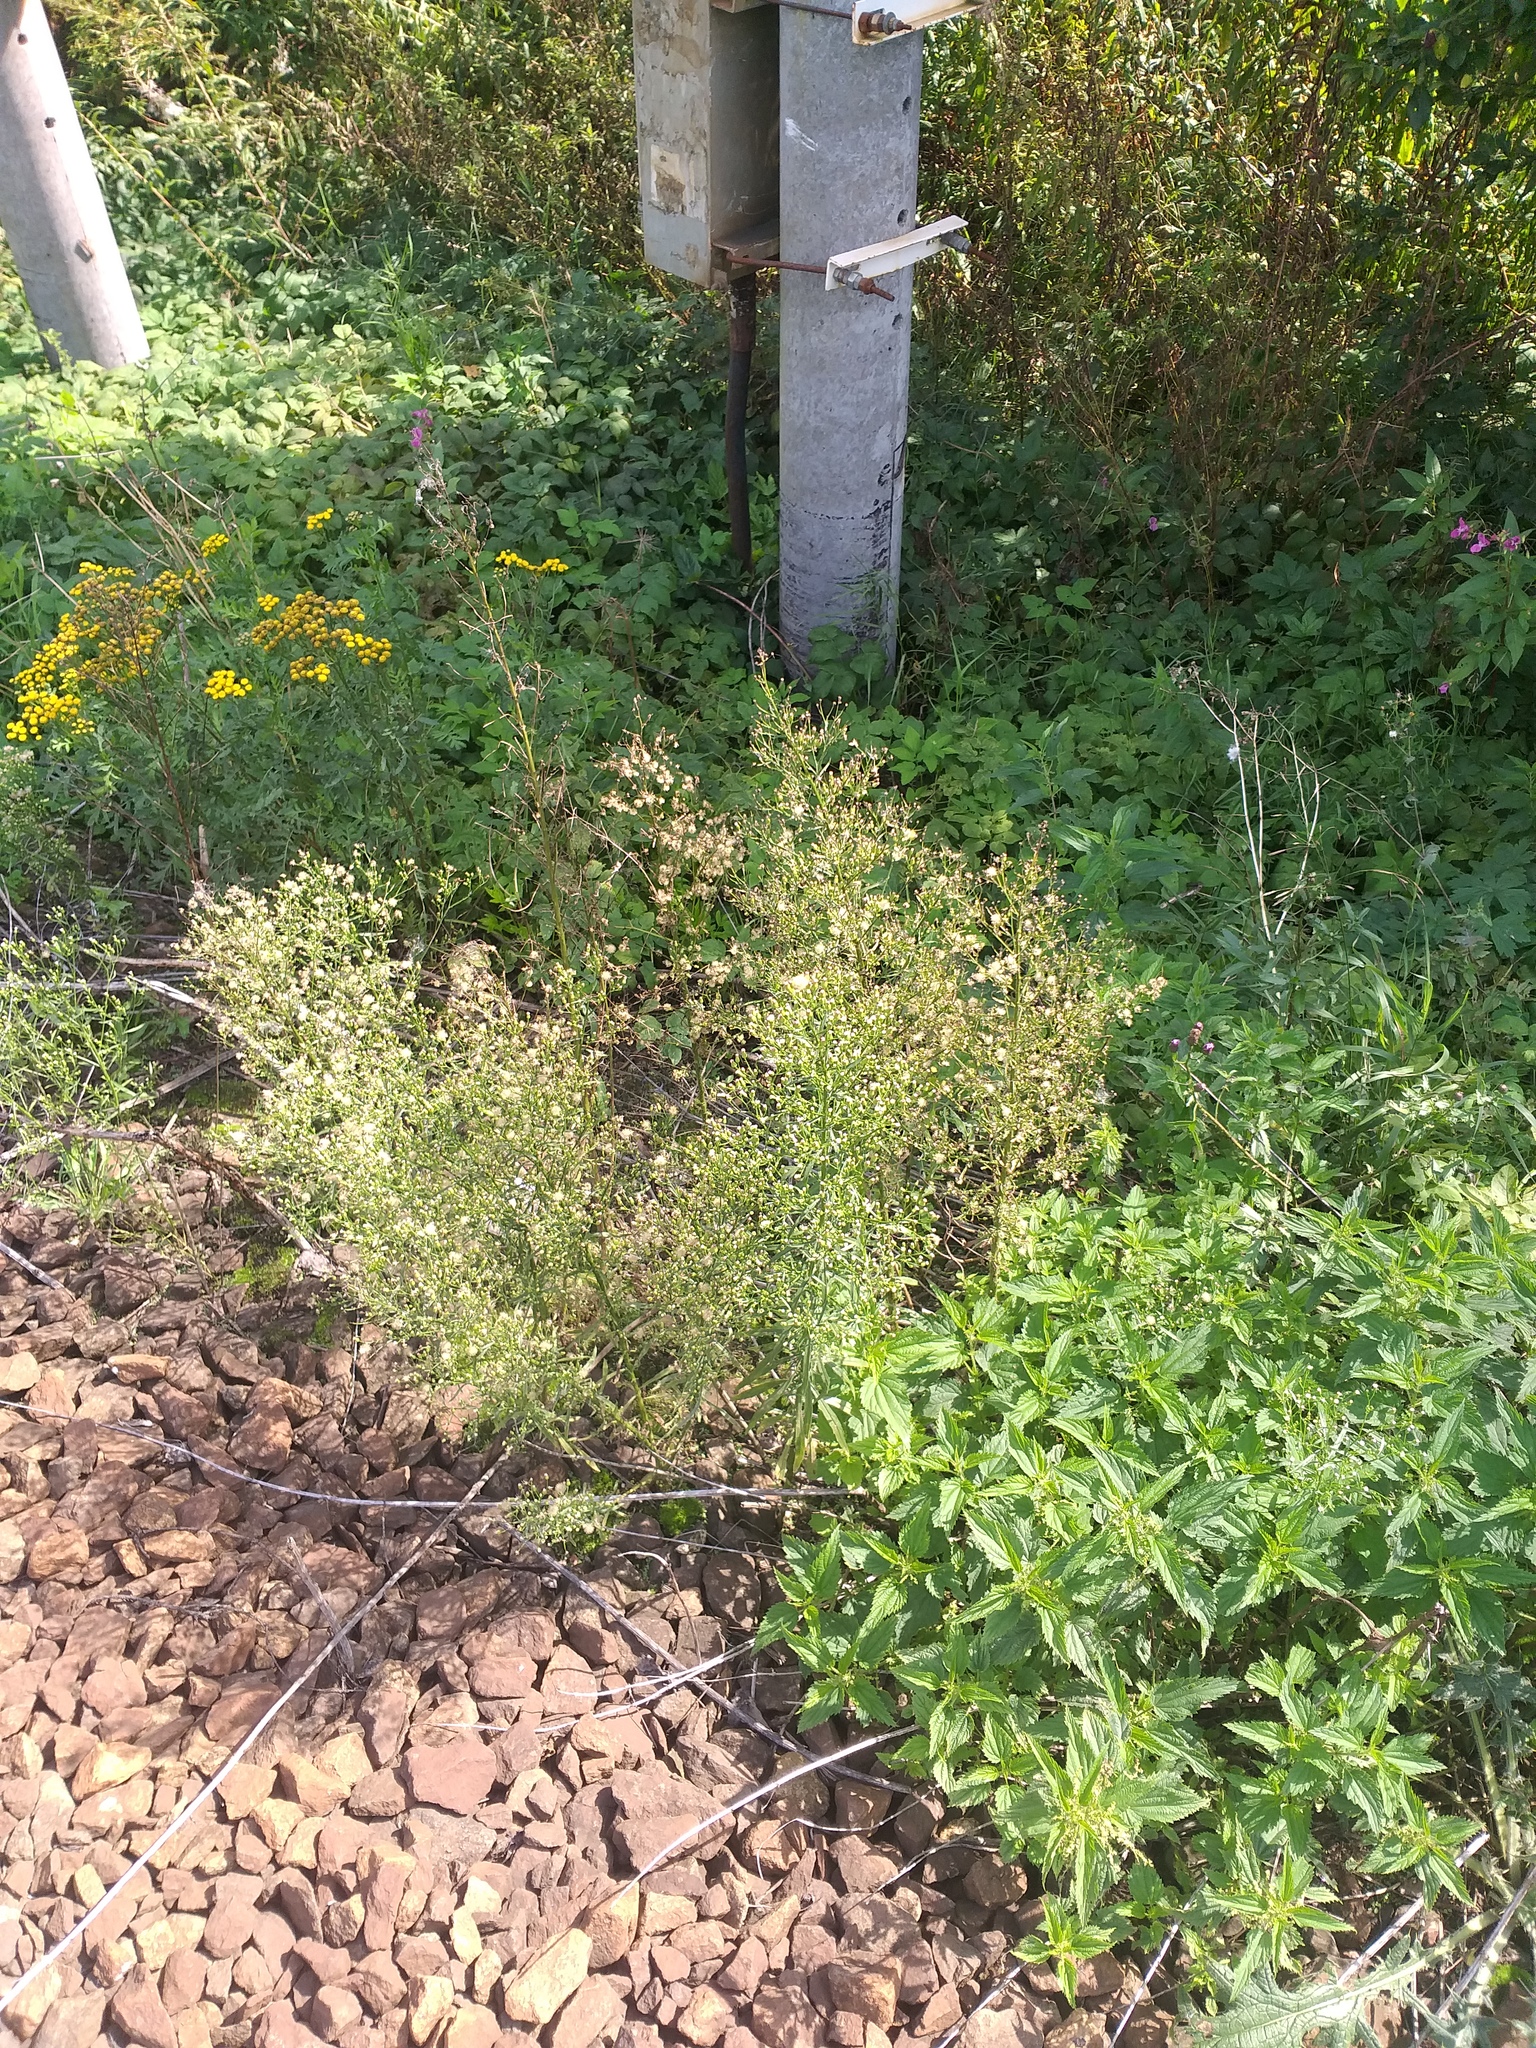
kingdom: Plantae
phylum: Tracheophyta
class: Magnoliopsida
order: Asterales
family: Asteraceae
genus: Erigeron
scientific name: Erigeron canadensis
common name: Canadian fleabane
